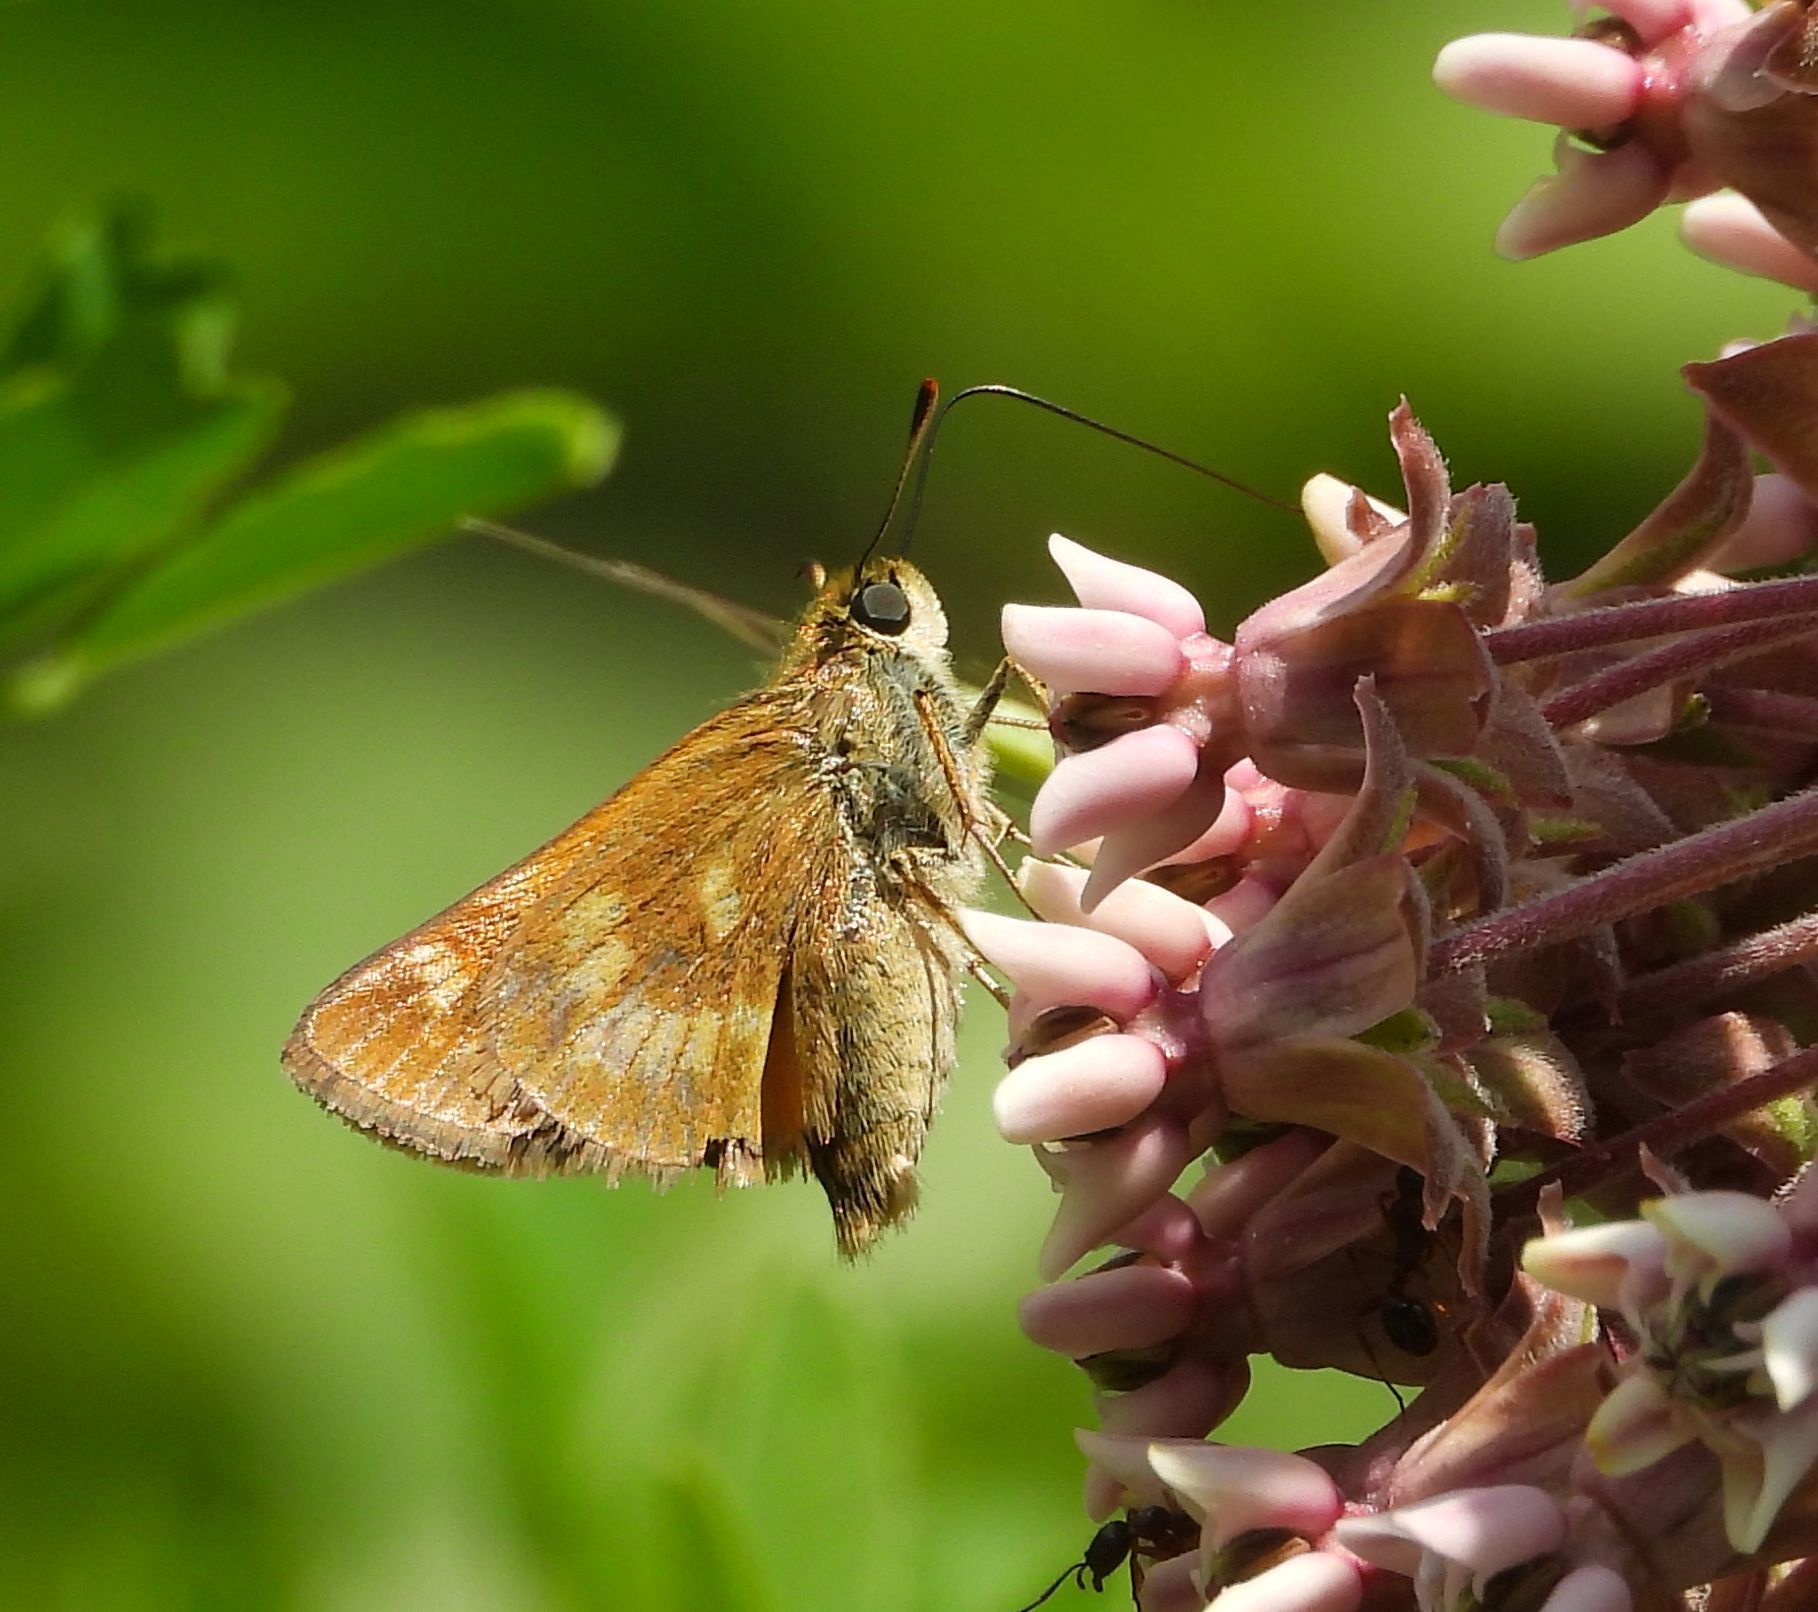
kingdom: Animalia
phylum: Arthropoda
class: Insecta
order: Lepidoptera
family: Hesperiidae
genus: Polites
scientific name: Polites mystic
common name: Long dash
